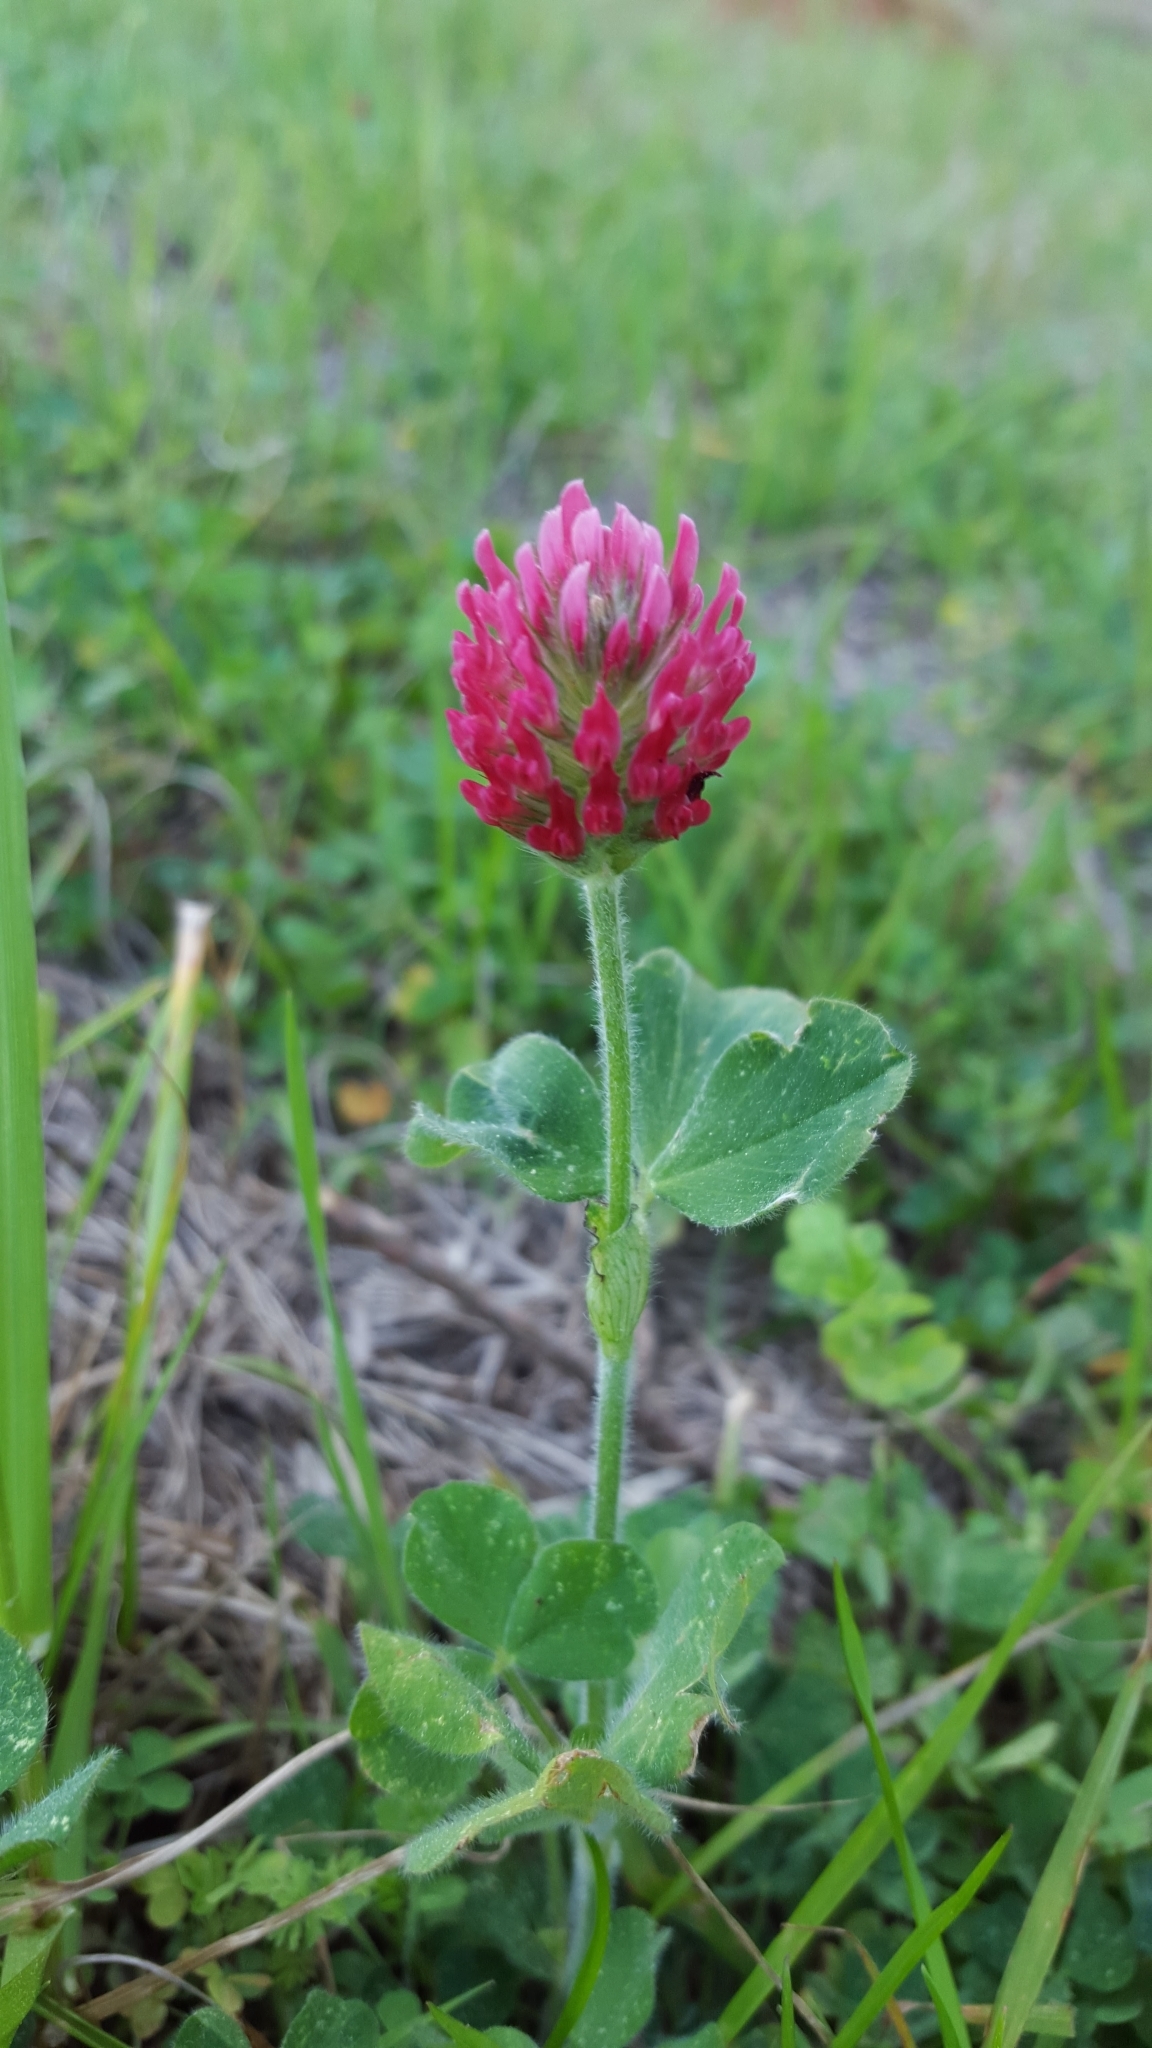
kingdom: Plantae
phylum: Tracheophyta
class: Magnoliopsida
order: Fabales
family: Fabaceae
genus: Trifolium
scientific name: Trifolium incarnatum
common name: Crimson clover
